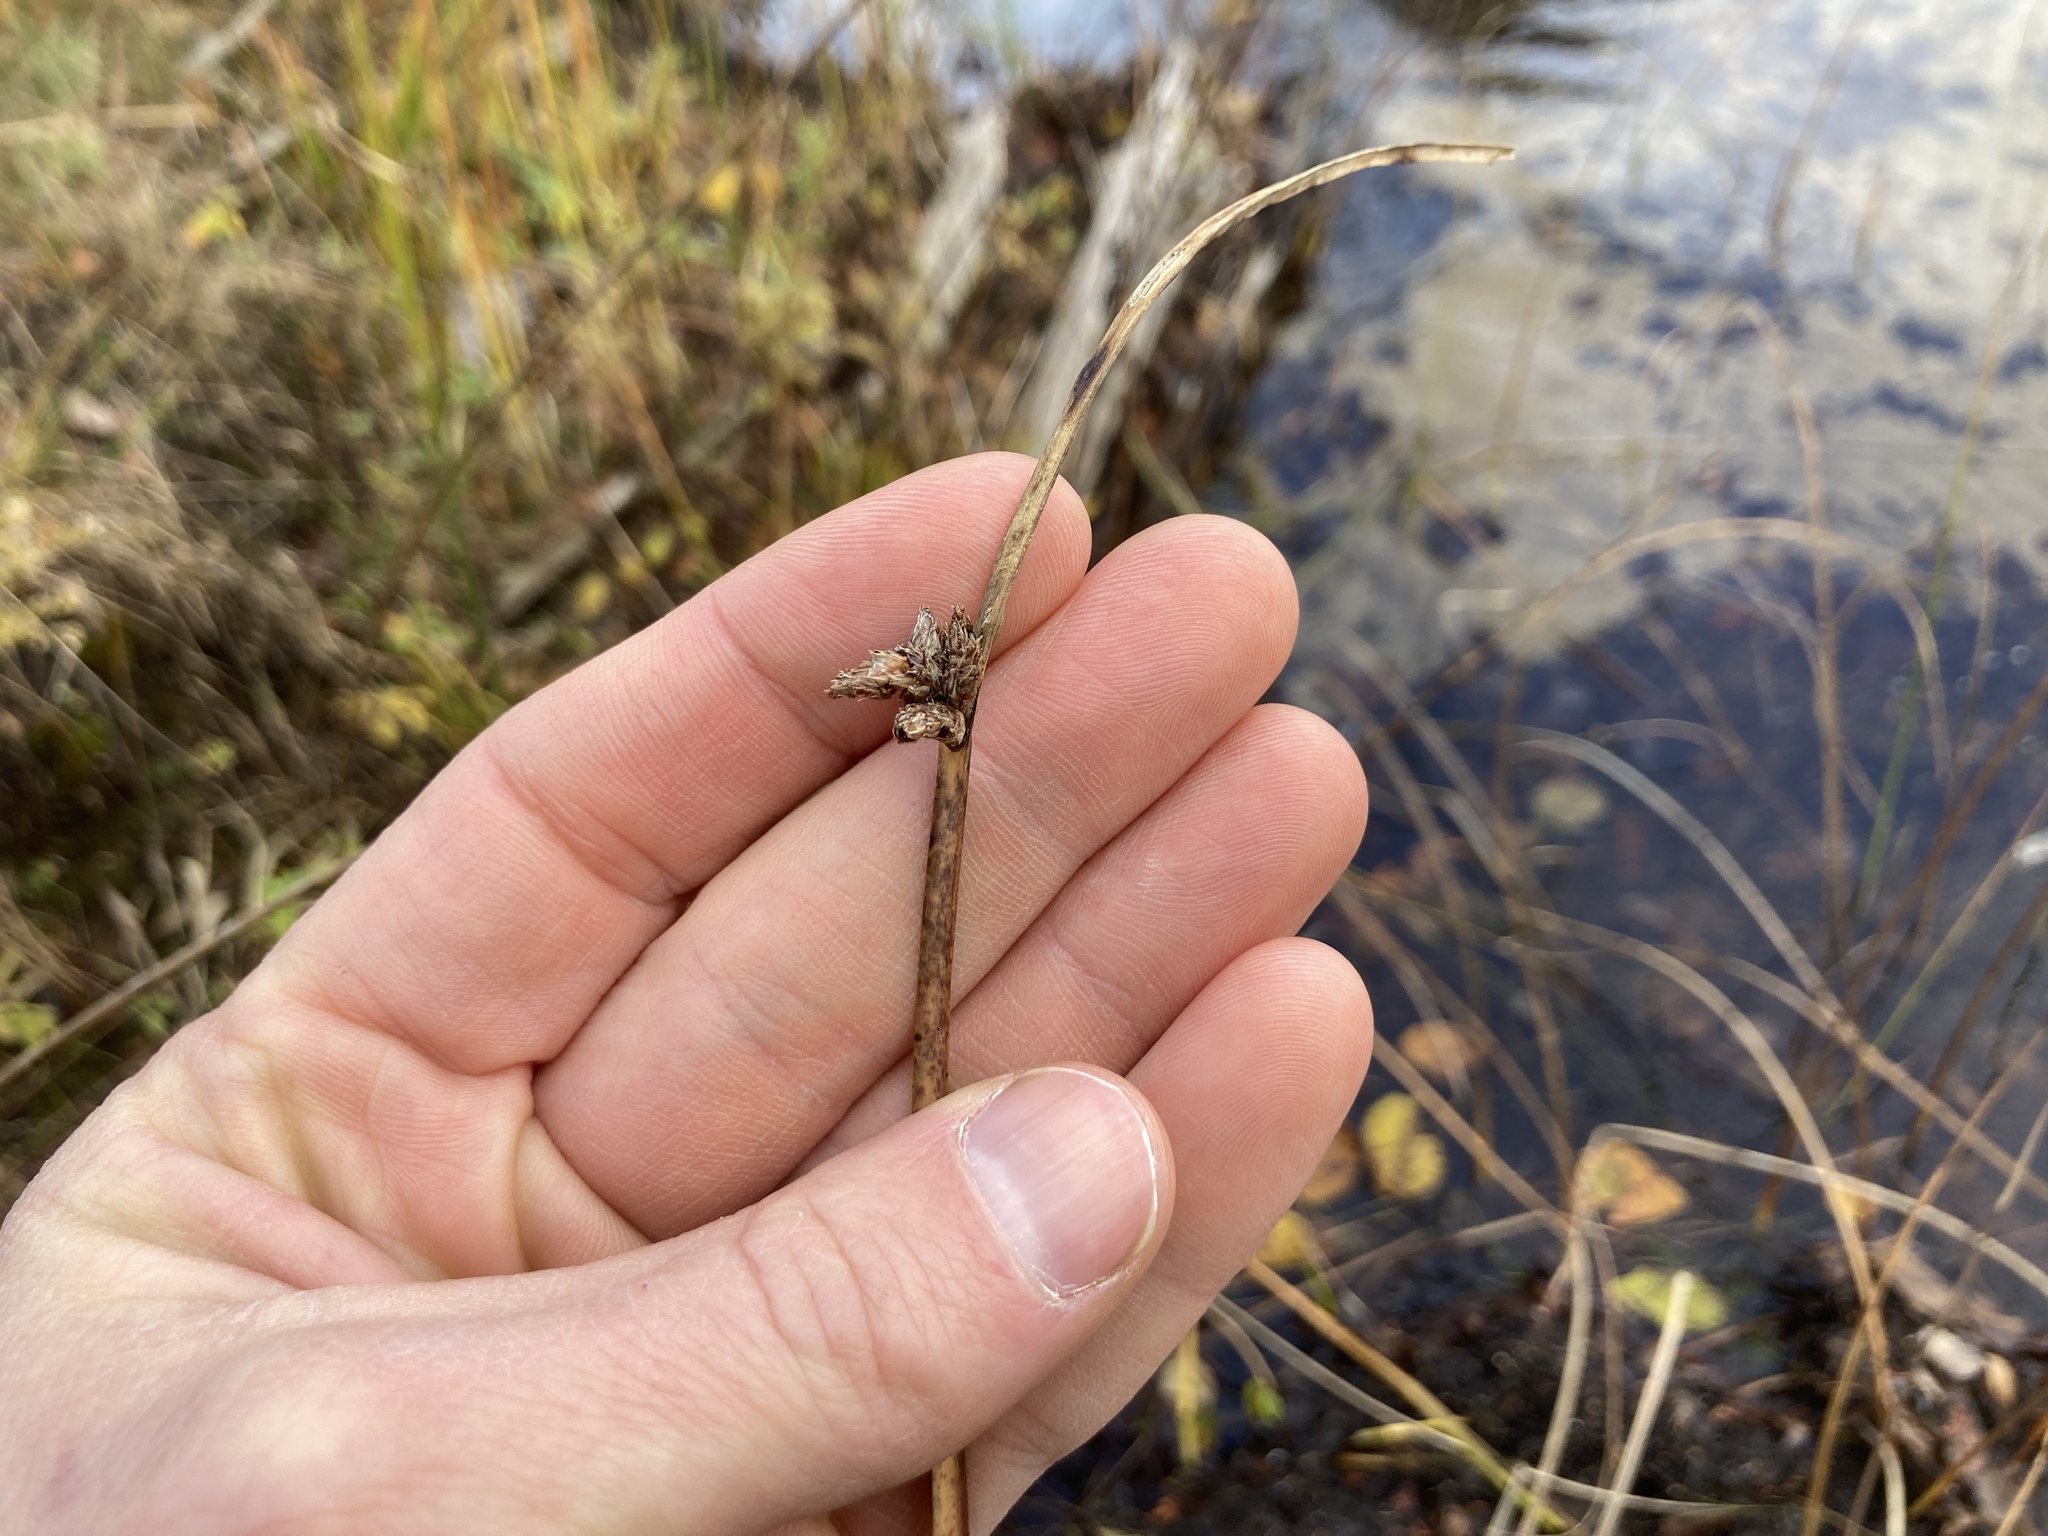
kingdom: Plantae
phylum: Tracheophyta
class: Liliopsida
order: Poales
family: Cyperaceae
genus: Schoenoplectus
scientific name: Schoenoplectus pungens
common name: Sharp club-rush
